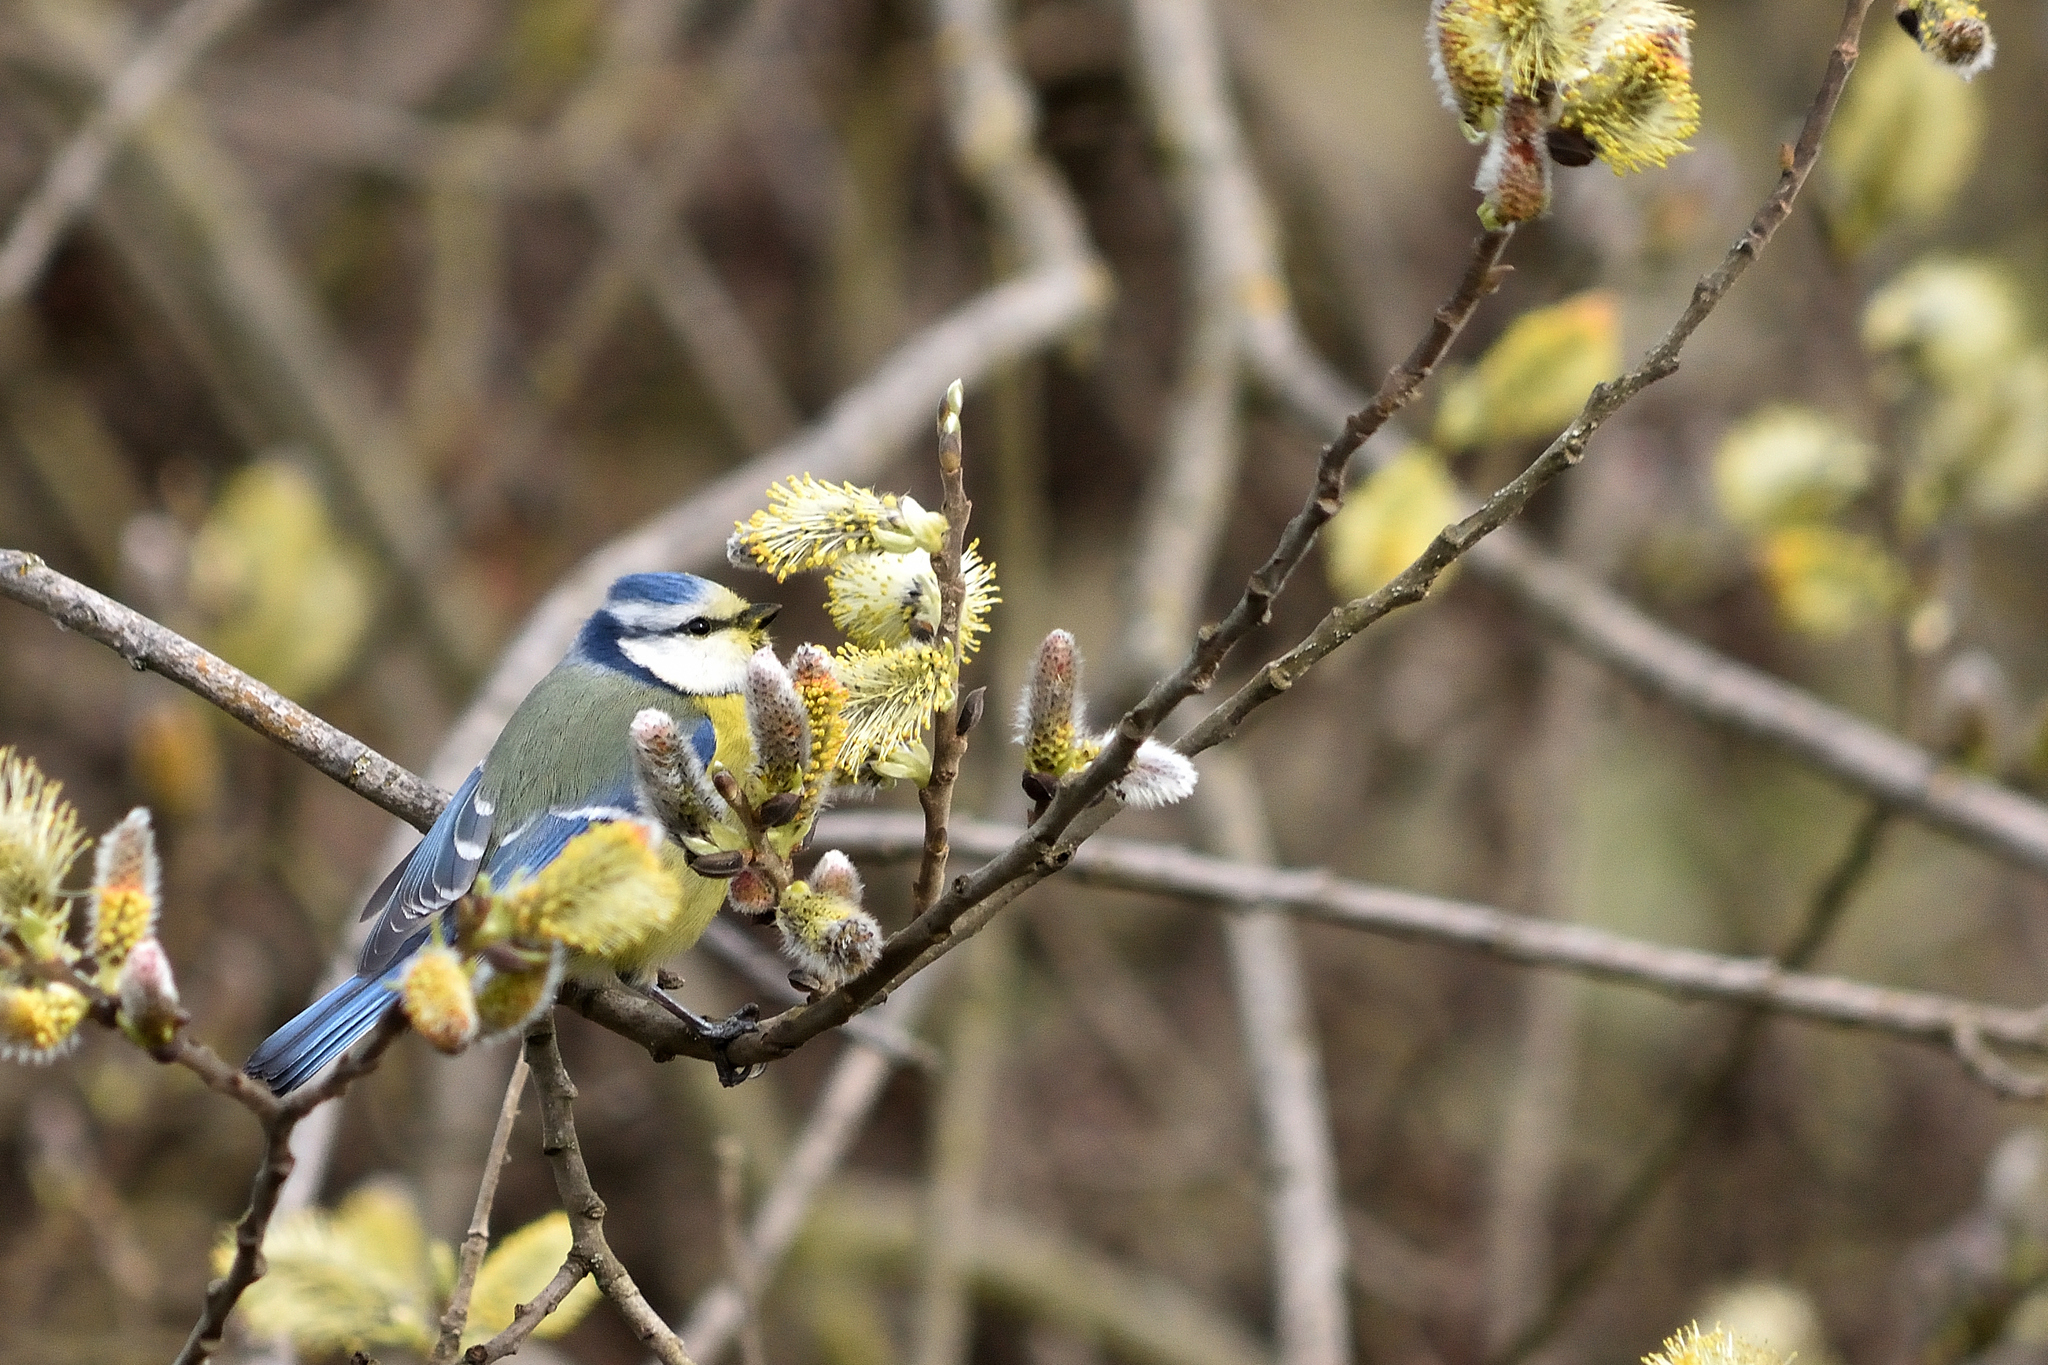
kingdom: Animalia
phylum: Chordata
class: Aves
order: Passeriformes
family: Paridae
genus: Cyanistes
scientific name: Cyanistes caeruleus
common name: Eurasian blue tit
